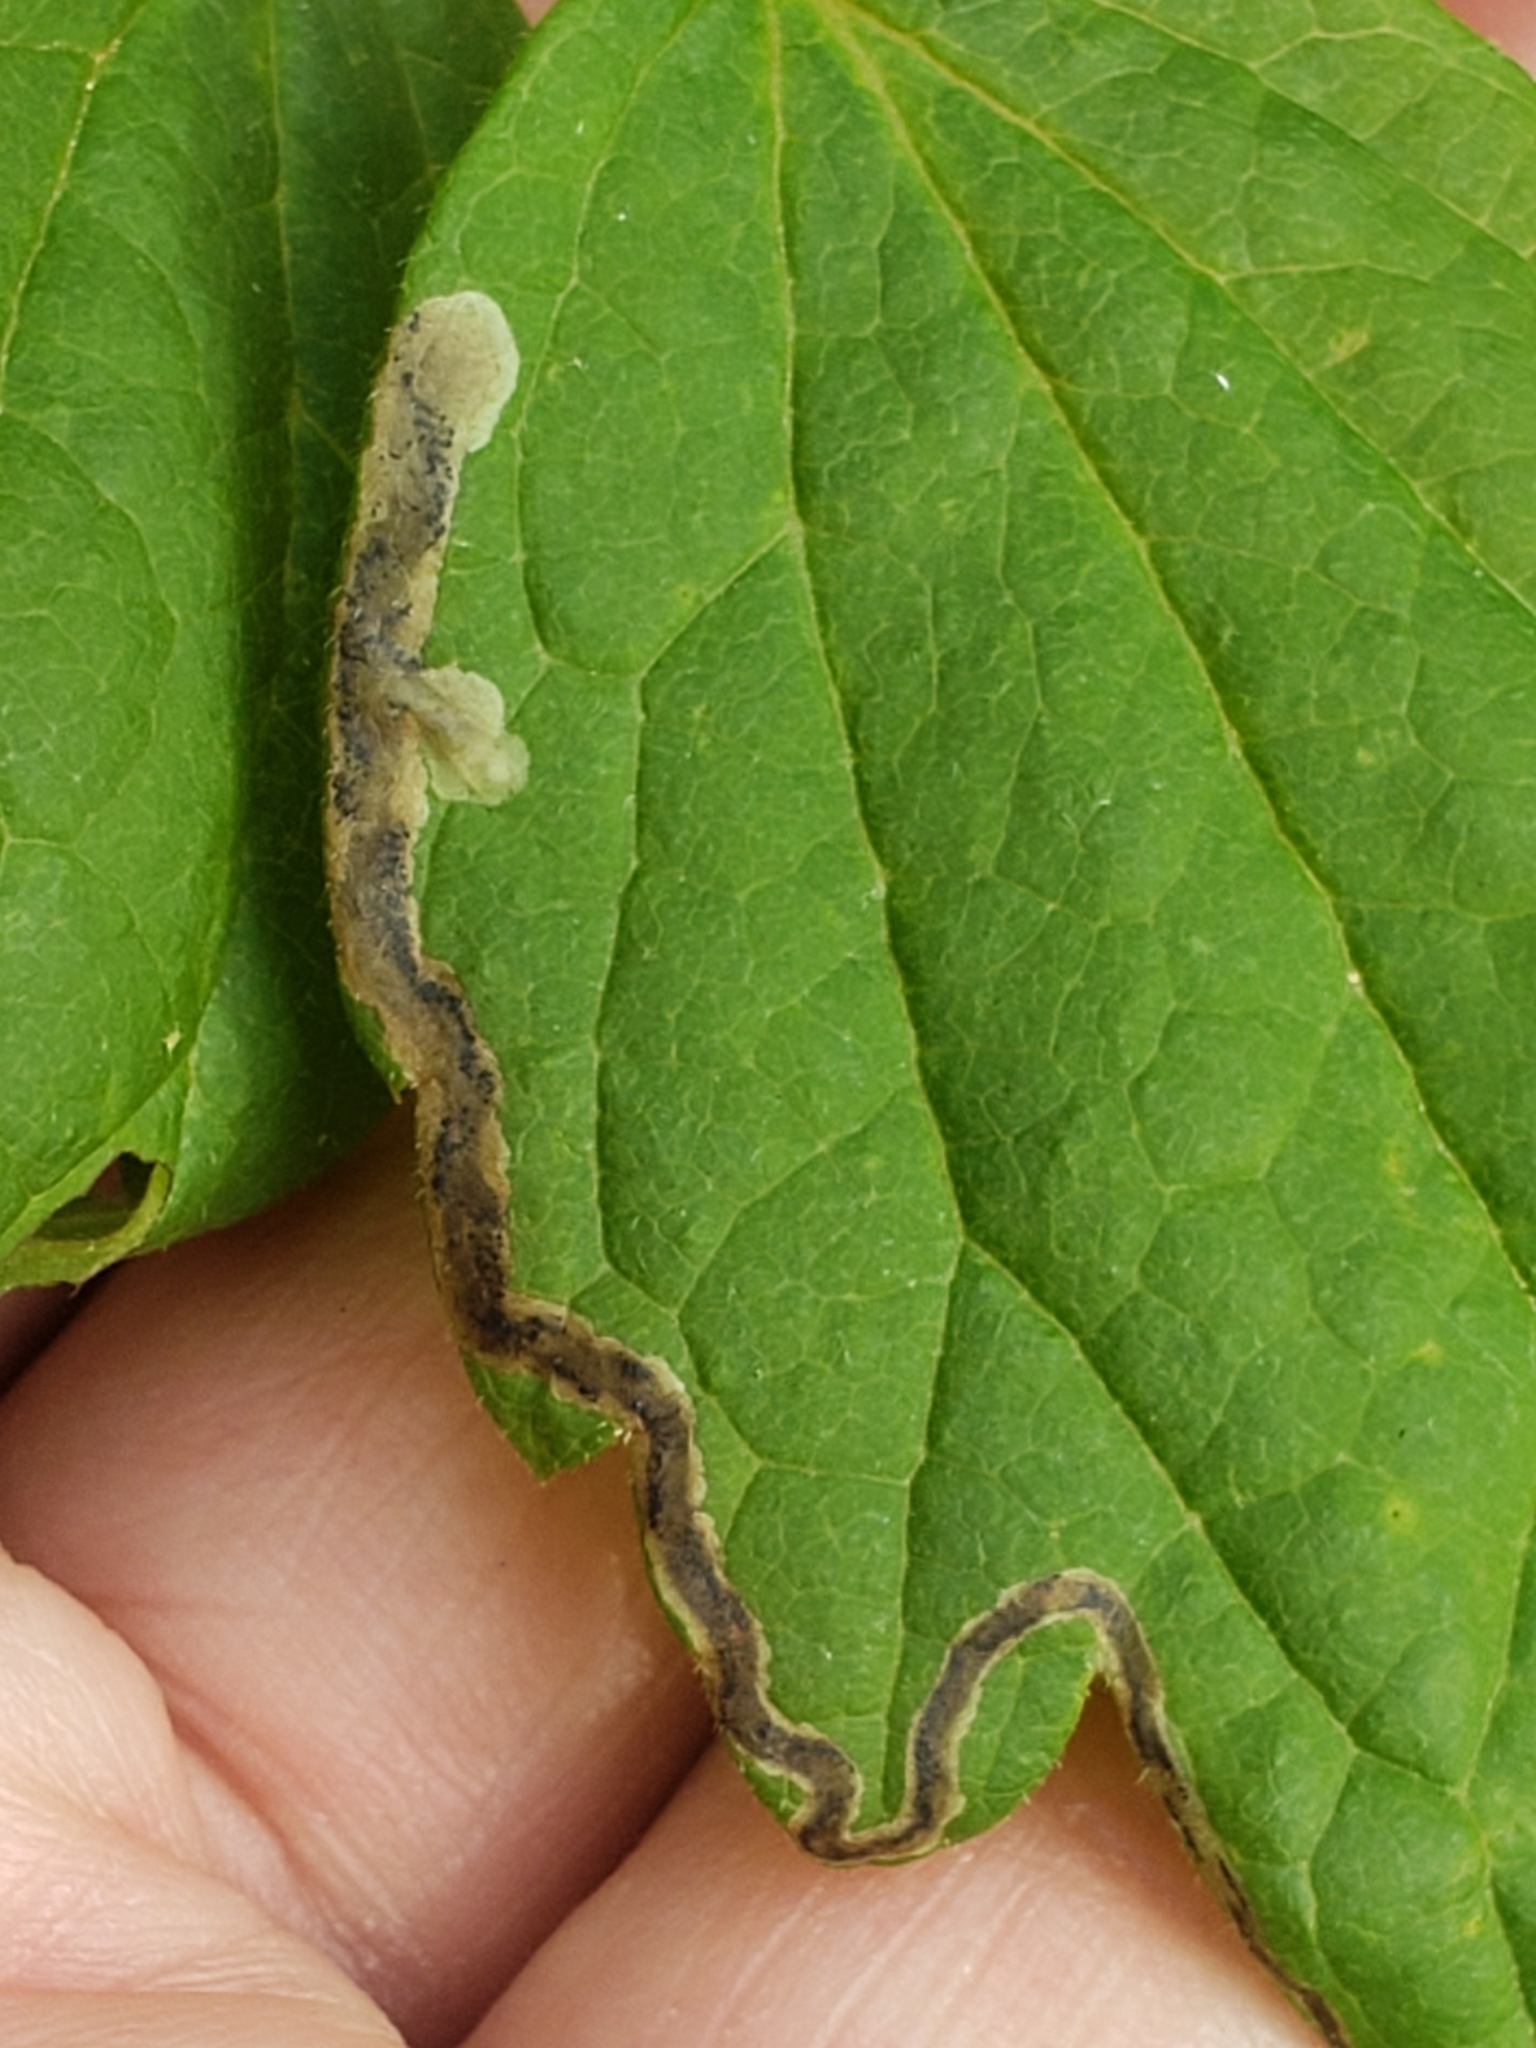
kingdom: Animalia
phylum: Arthropoda
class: Insecta
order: Diptera
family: Agromyzidae
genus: Phytomyza
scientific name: Phytomyza loewii
